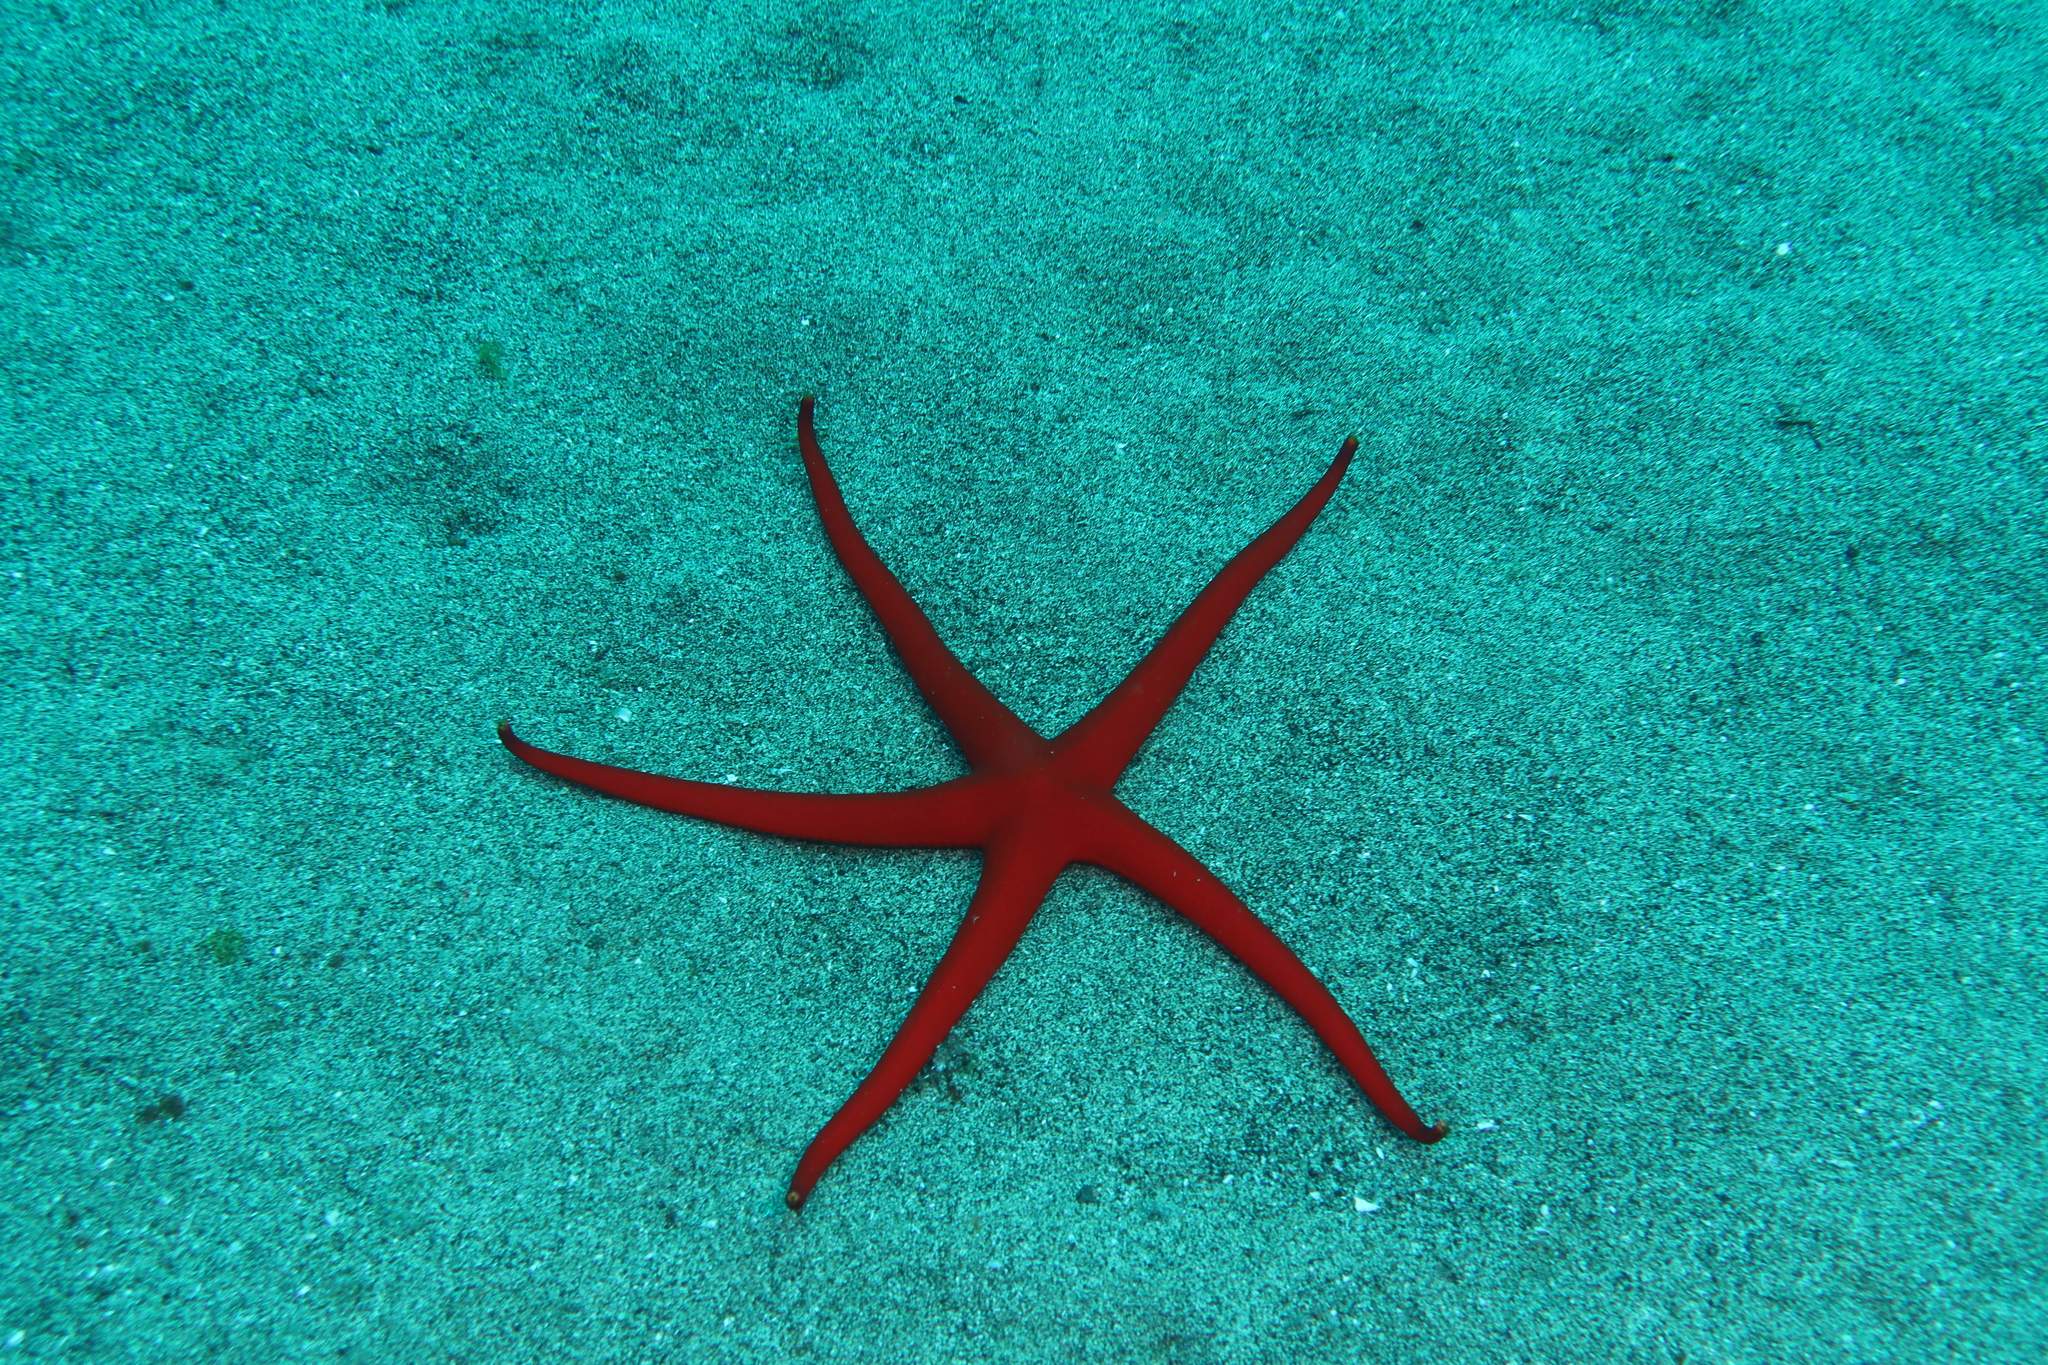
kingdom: Animalia
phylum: Echinodermata
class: Asteroidea
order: Valvatida
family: Ophidiasteridae
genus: Narcissia
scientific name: Narcissia canariensis
